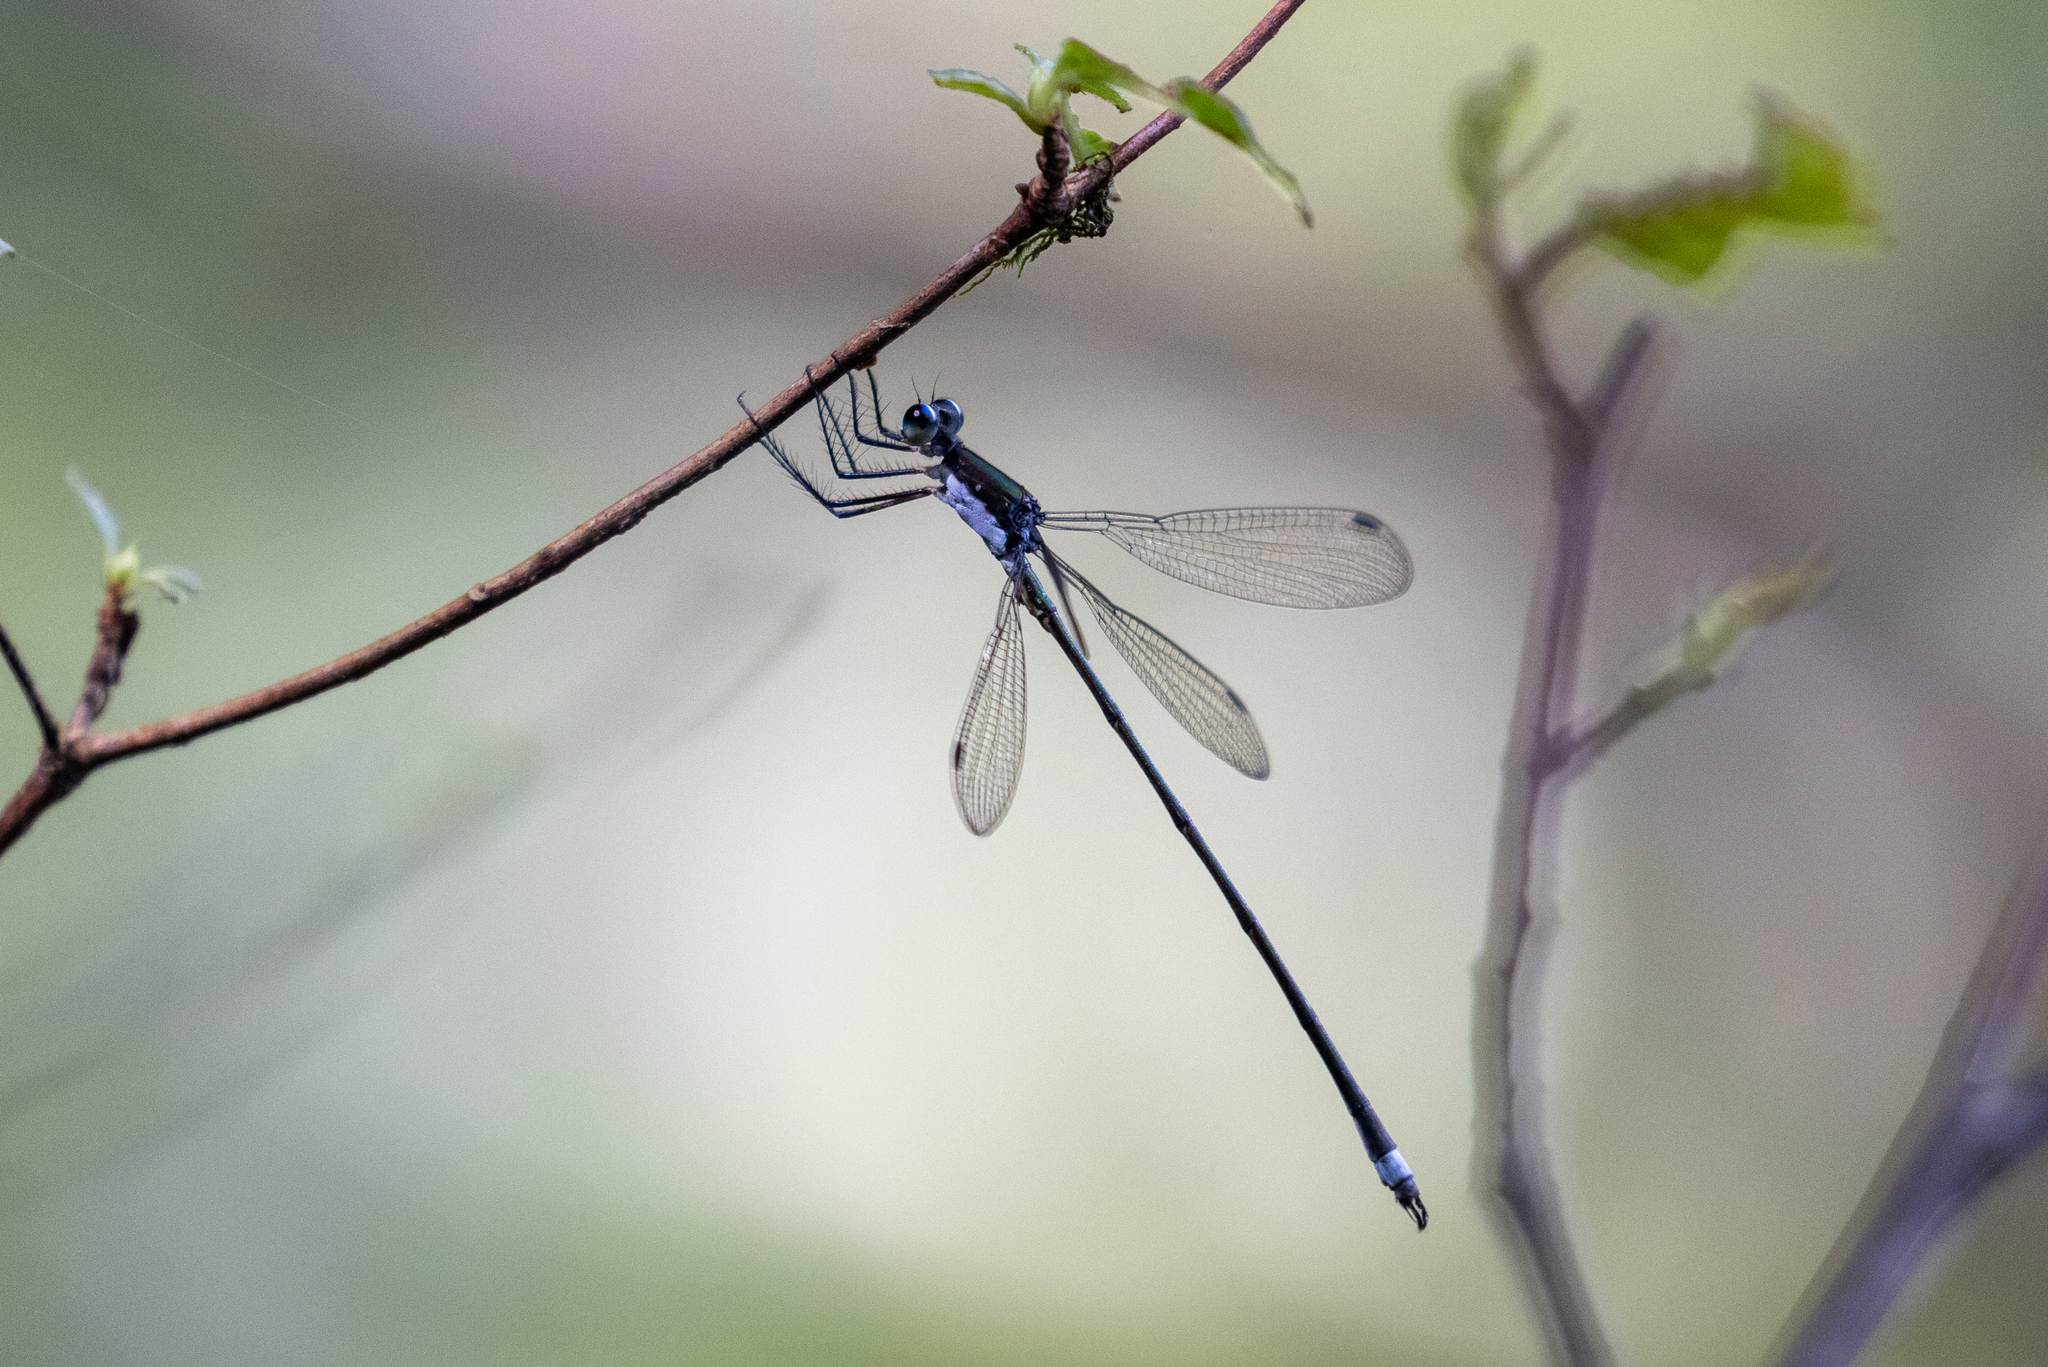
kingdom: Animalia
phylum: Arthropoda
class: Insecta
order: Odonata
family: Lestidae
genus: Lestes
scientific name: Lestes vigilax
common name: Swamp spreadwing
